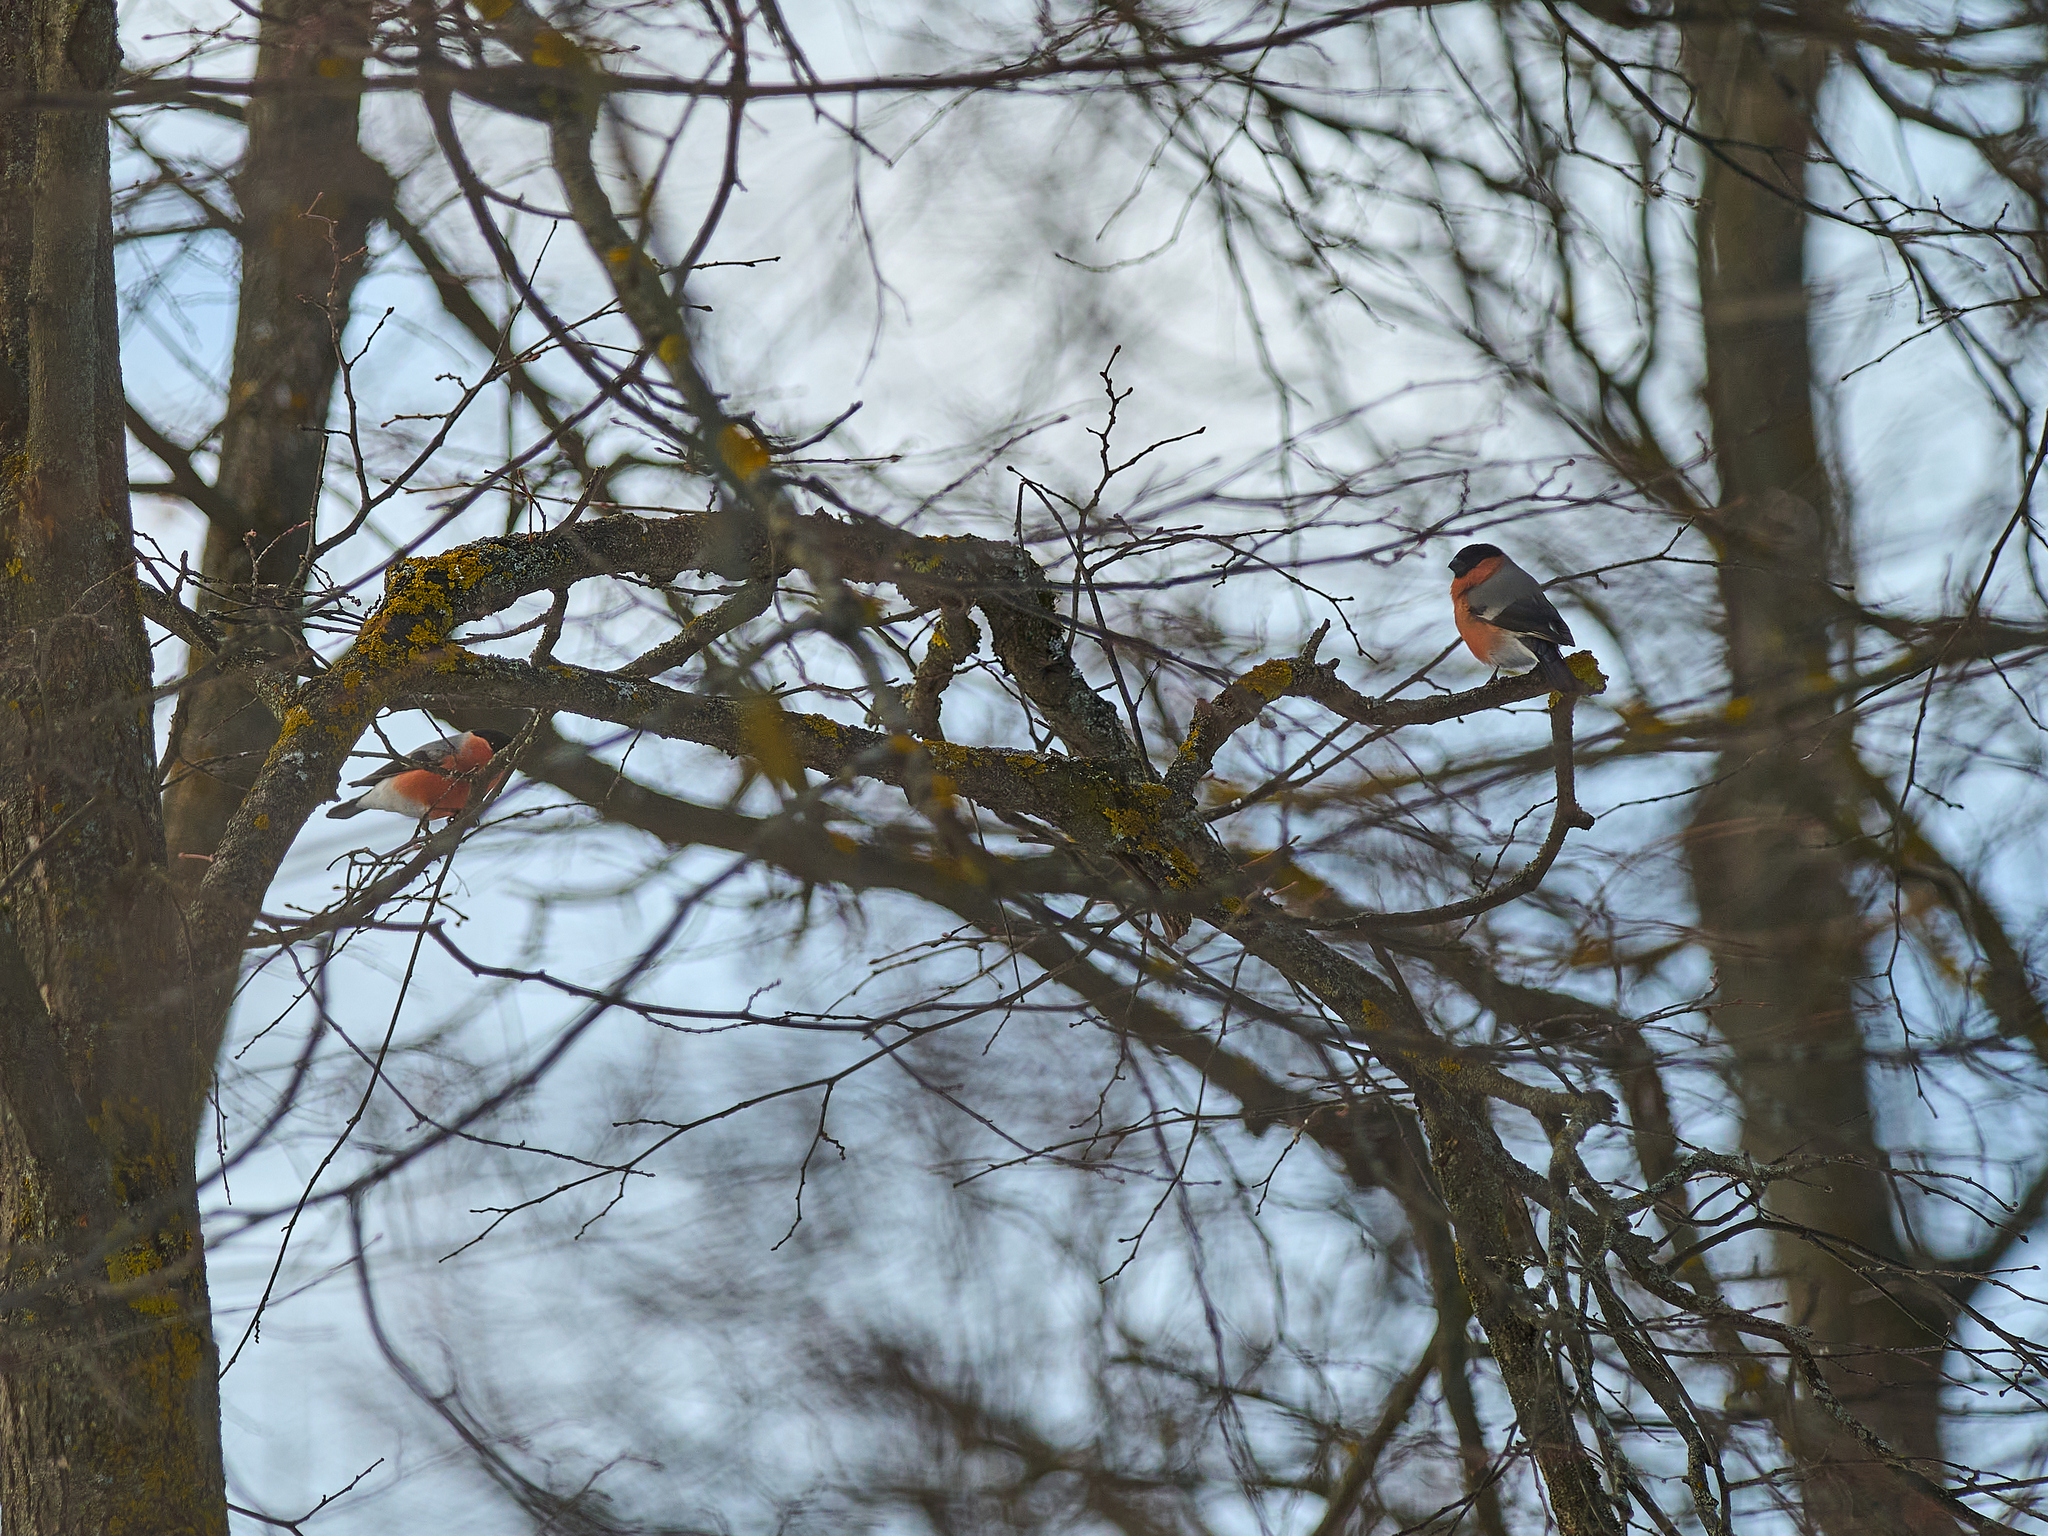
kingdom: Animalia
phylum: Chordata
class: Aves
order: Passeriformes
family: Fringillidae
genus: Pyrrhula
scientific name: Pyrrhula pyrrhula
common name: Eurasian bullfinch
